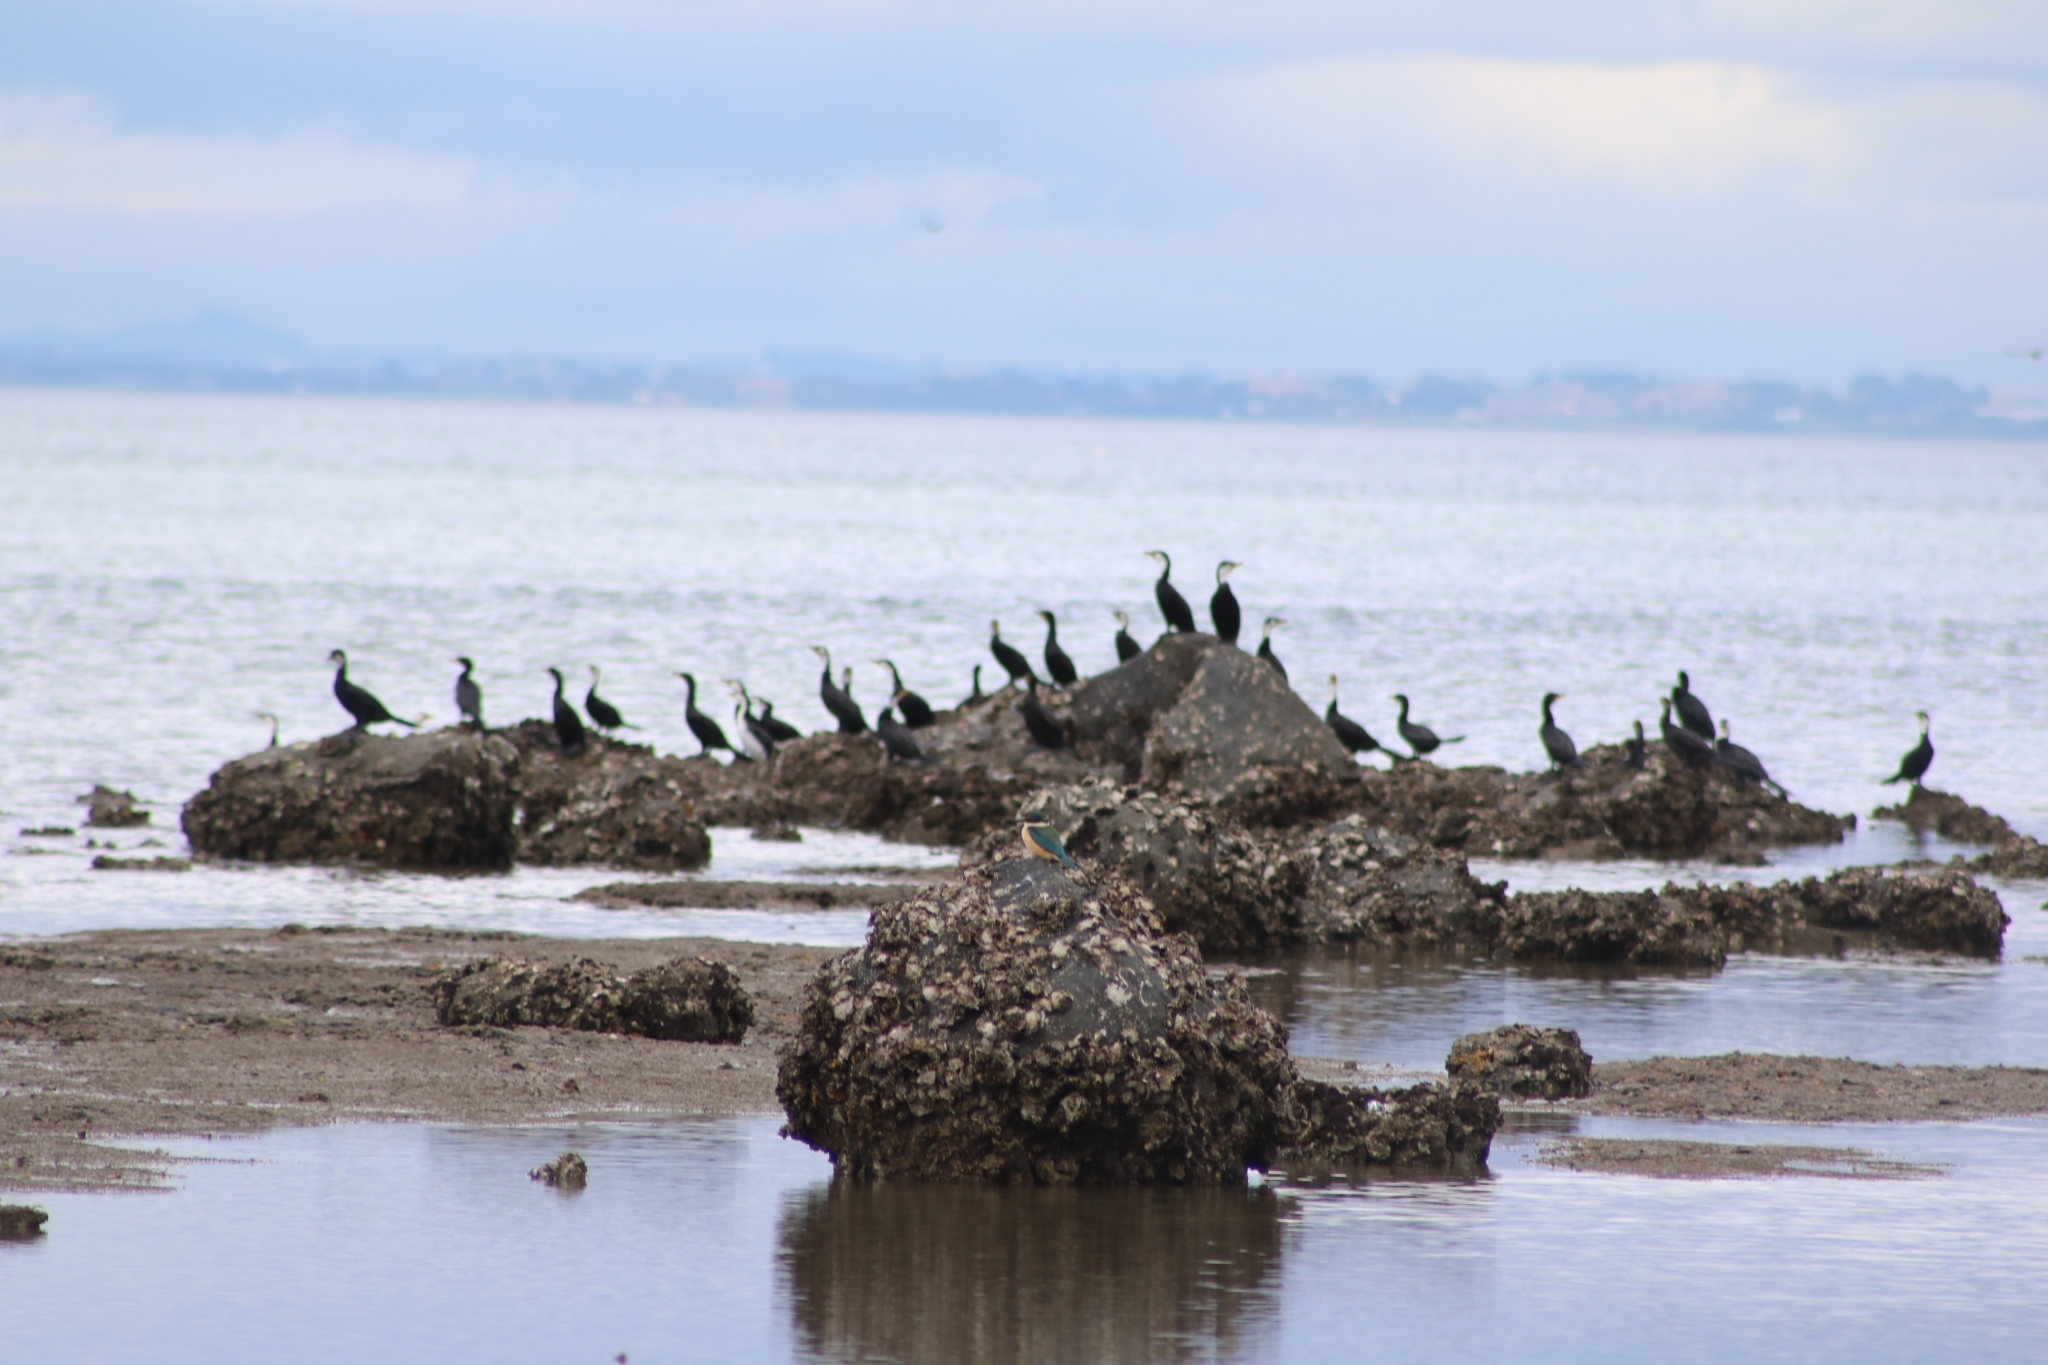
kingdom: Animalia
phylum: Chordata
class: Aves
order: Coraciiformes
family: Alcedinidae
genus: Todiramphus
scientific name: Todiramphus sanctus
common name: Sacred kingfisher
